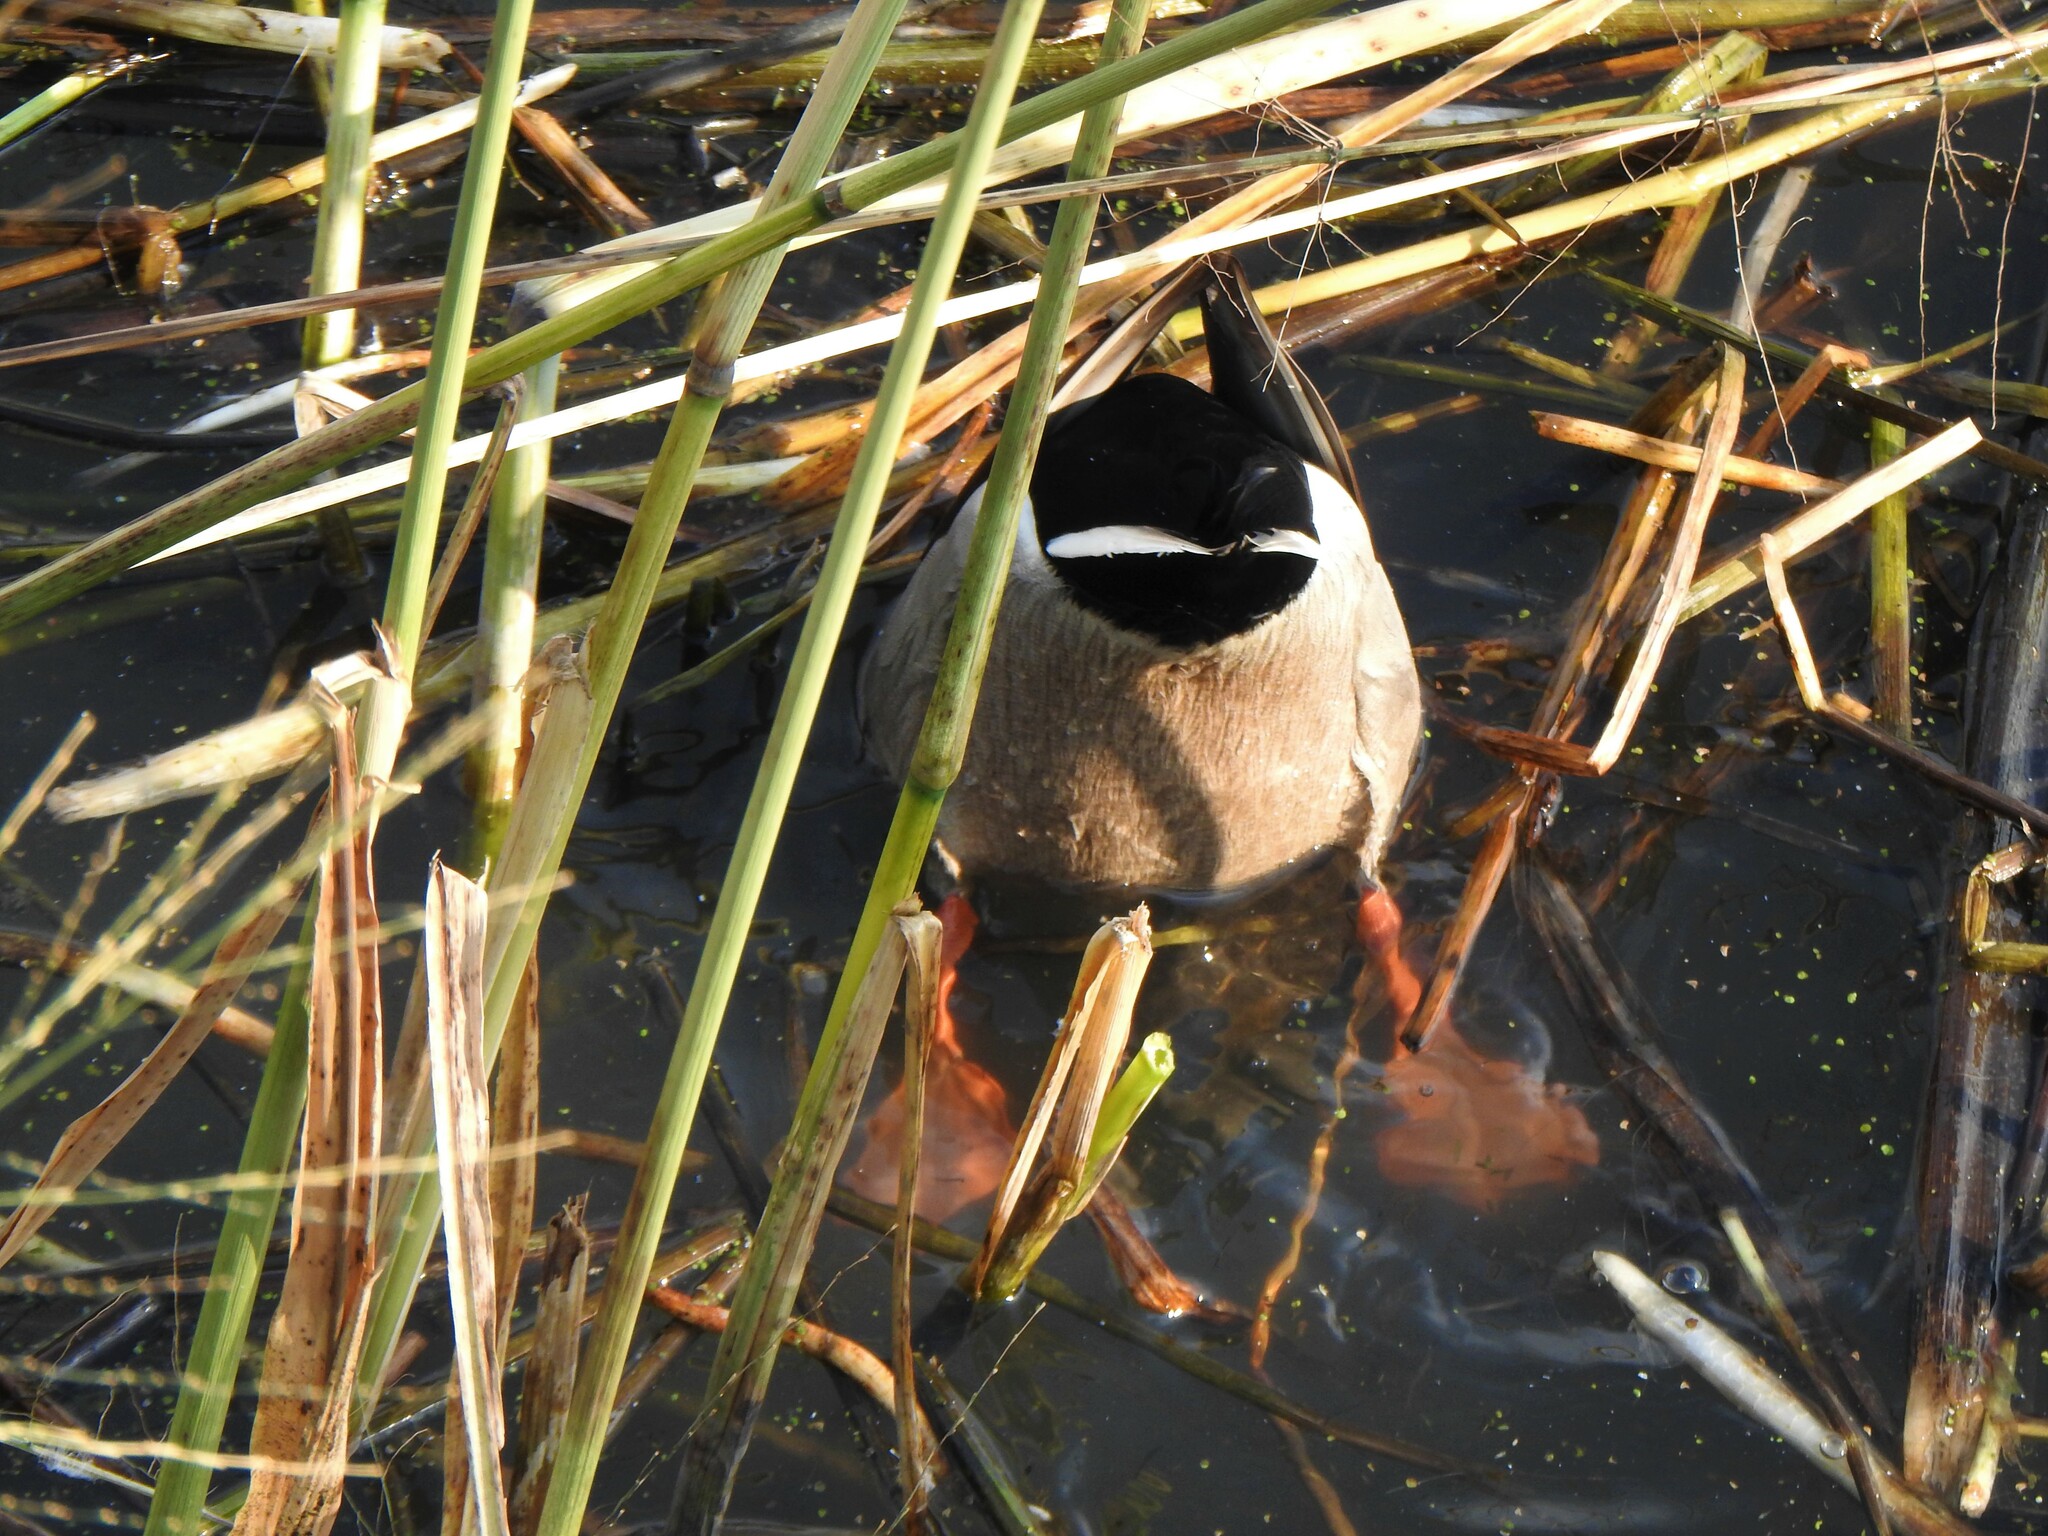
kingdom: Animalia
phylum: Chordata
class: Aves
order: Anseriformes
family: Anatidae
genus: Anas
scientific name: Anas platyrhynchos
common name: Mallard
